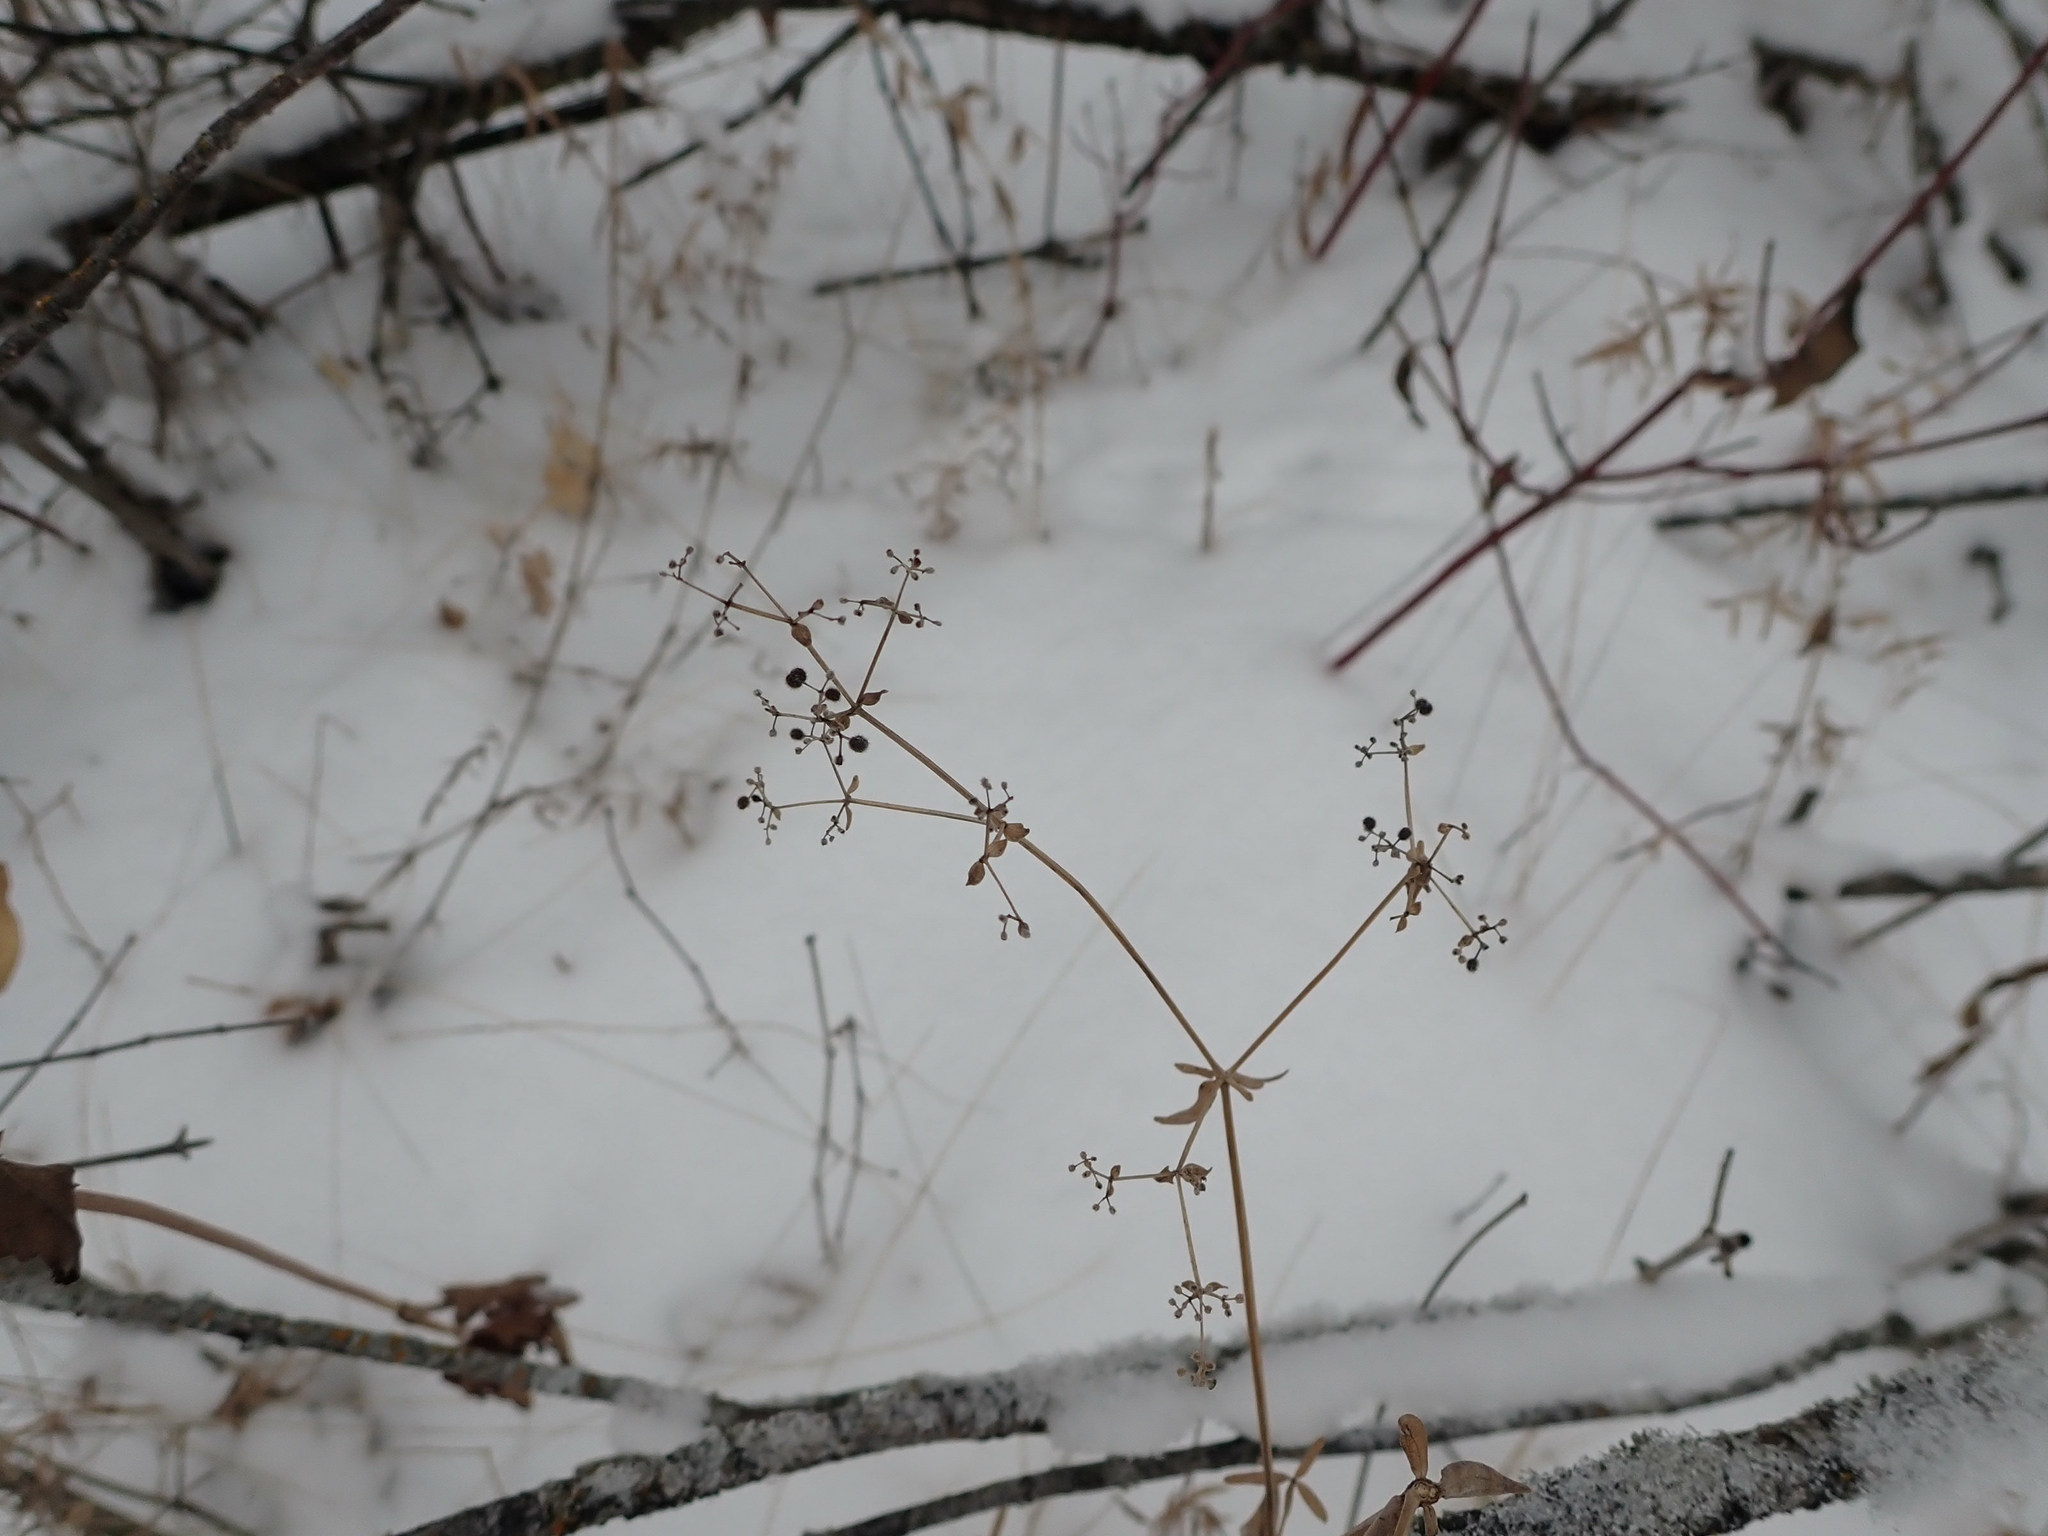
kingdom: Plantae
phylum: Tracheophyta
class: Magnoliopsida
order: Gentianales
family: Rubiaceae
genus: Galium
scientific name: Galium boreale
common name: Northern bedstraw
